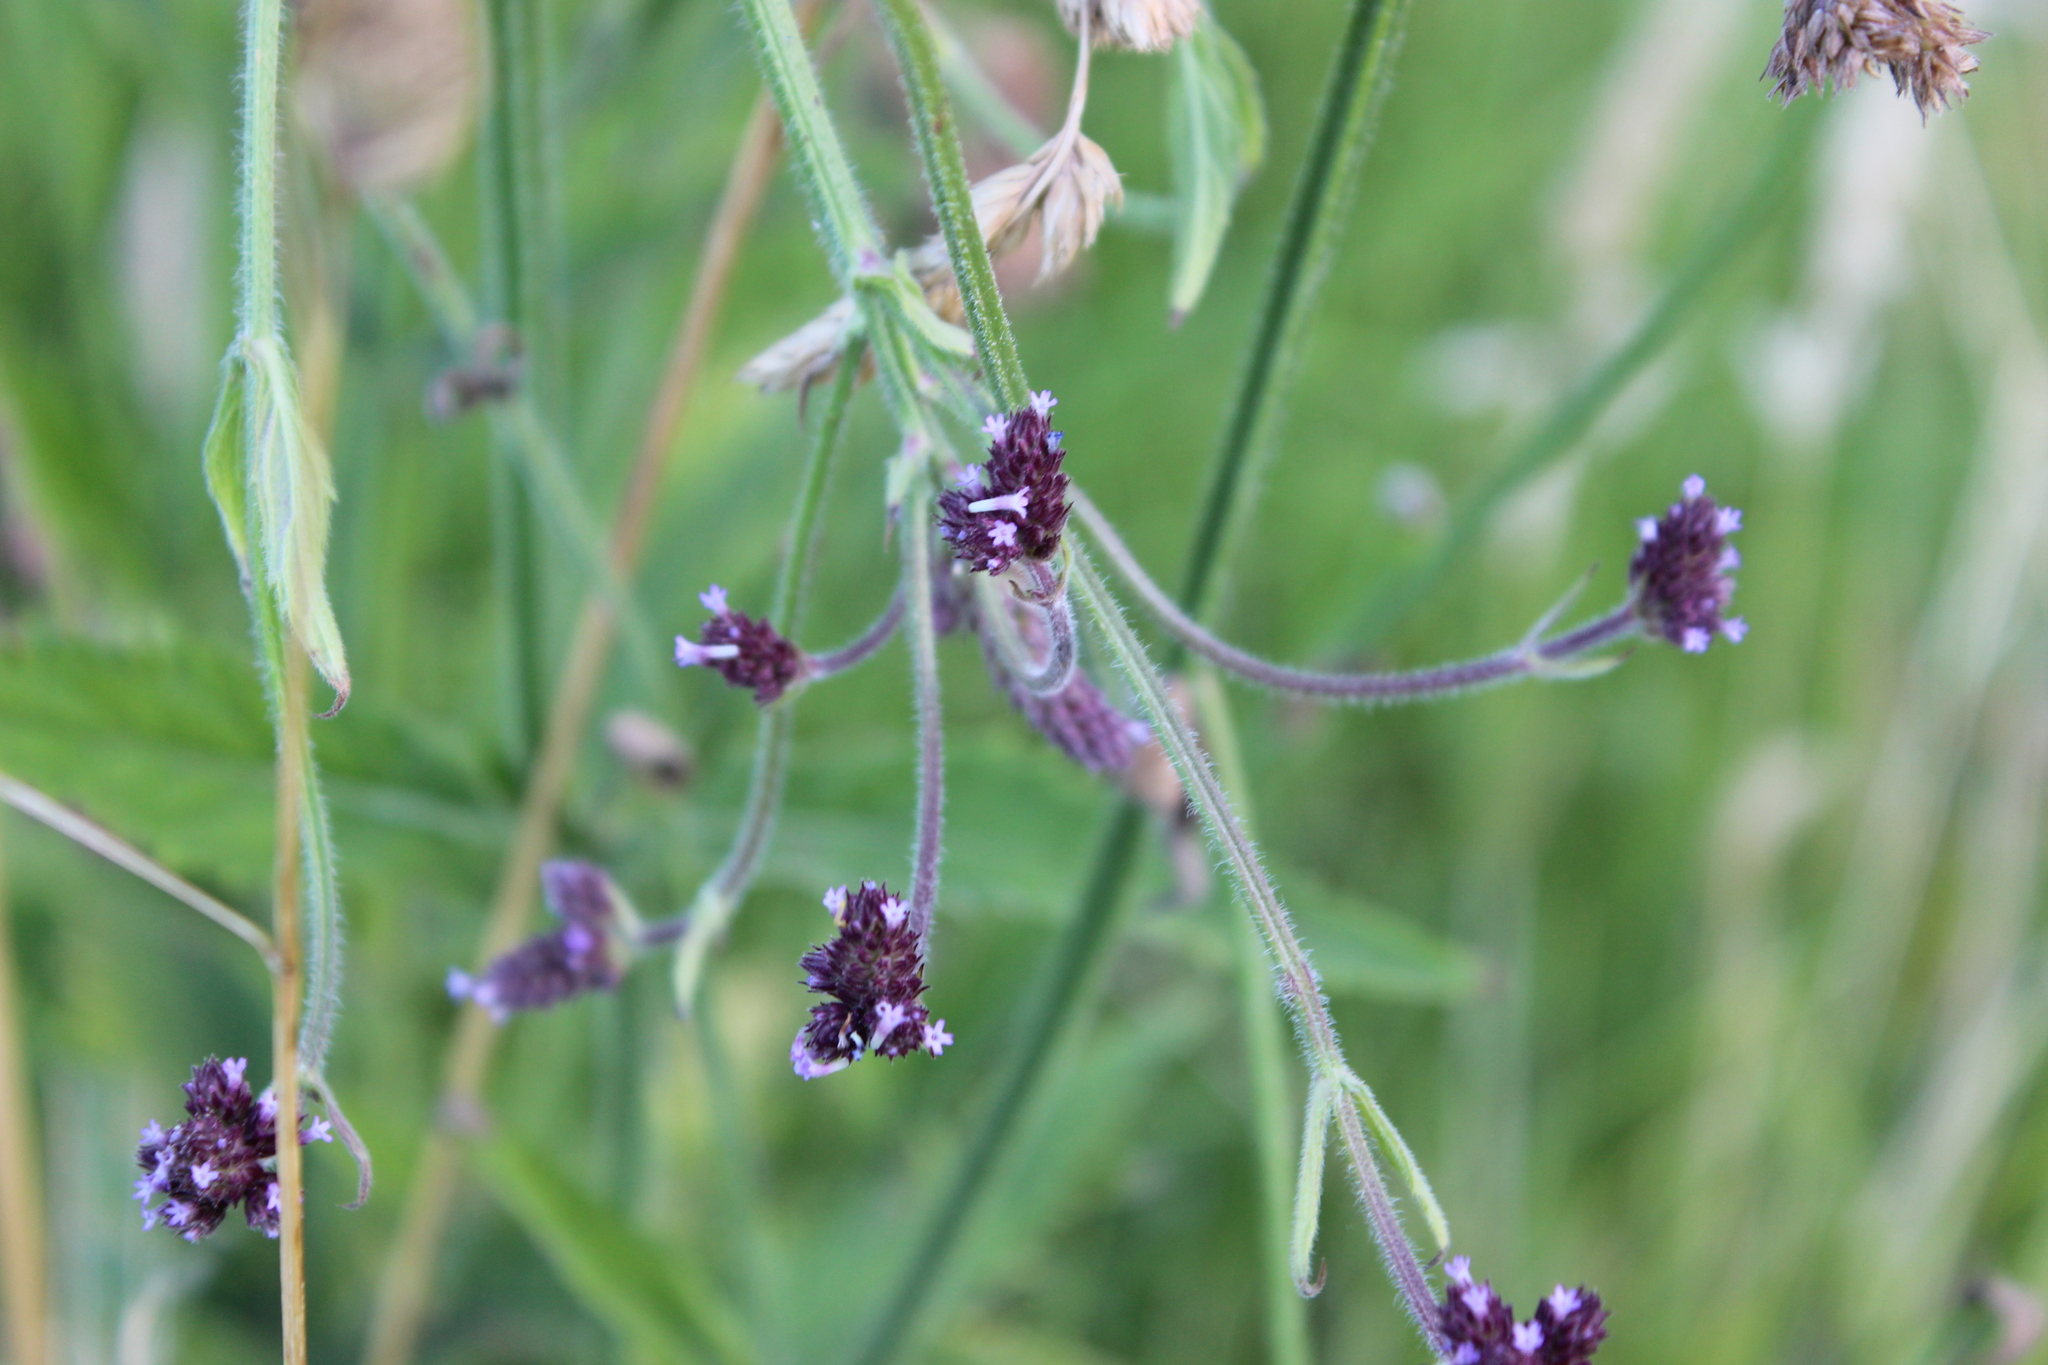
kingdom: Plantae
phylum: Tracheophyta
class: Magnoliopsida
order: Lamiales
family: Verbenaceae
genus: Verbena
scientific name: Verbena incompta
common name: Purpletop vervain
